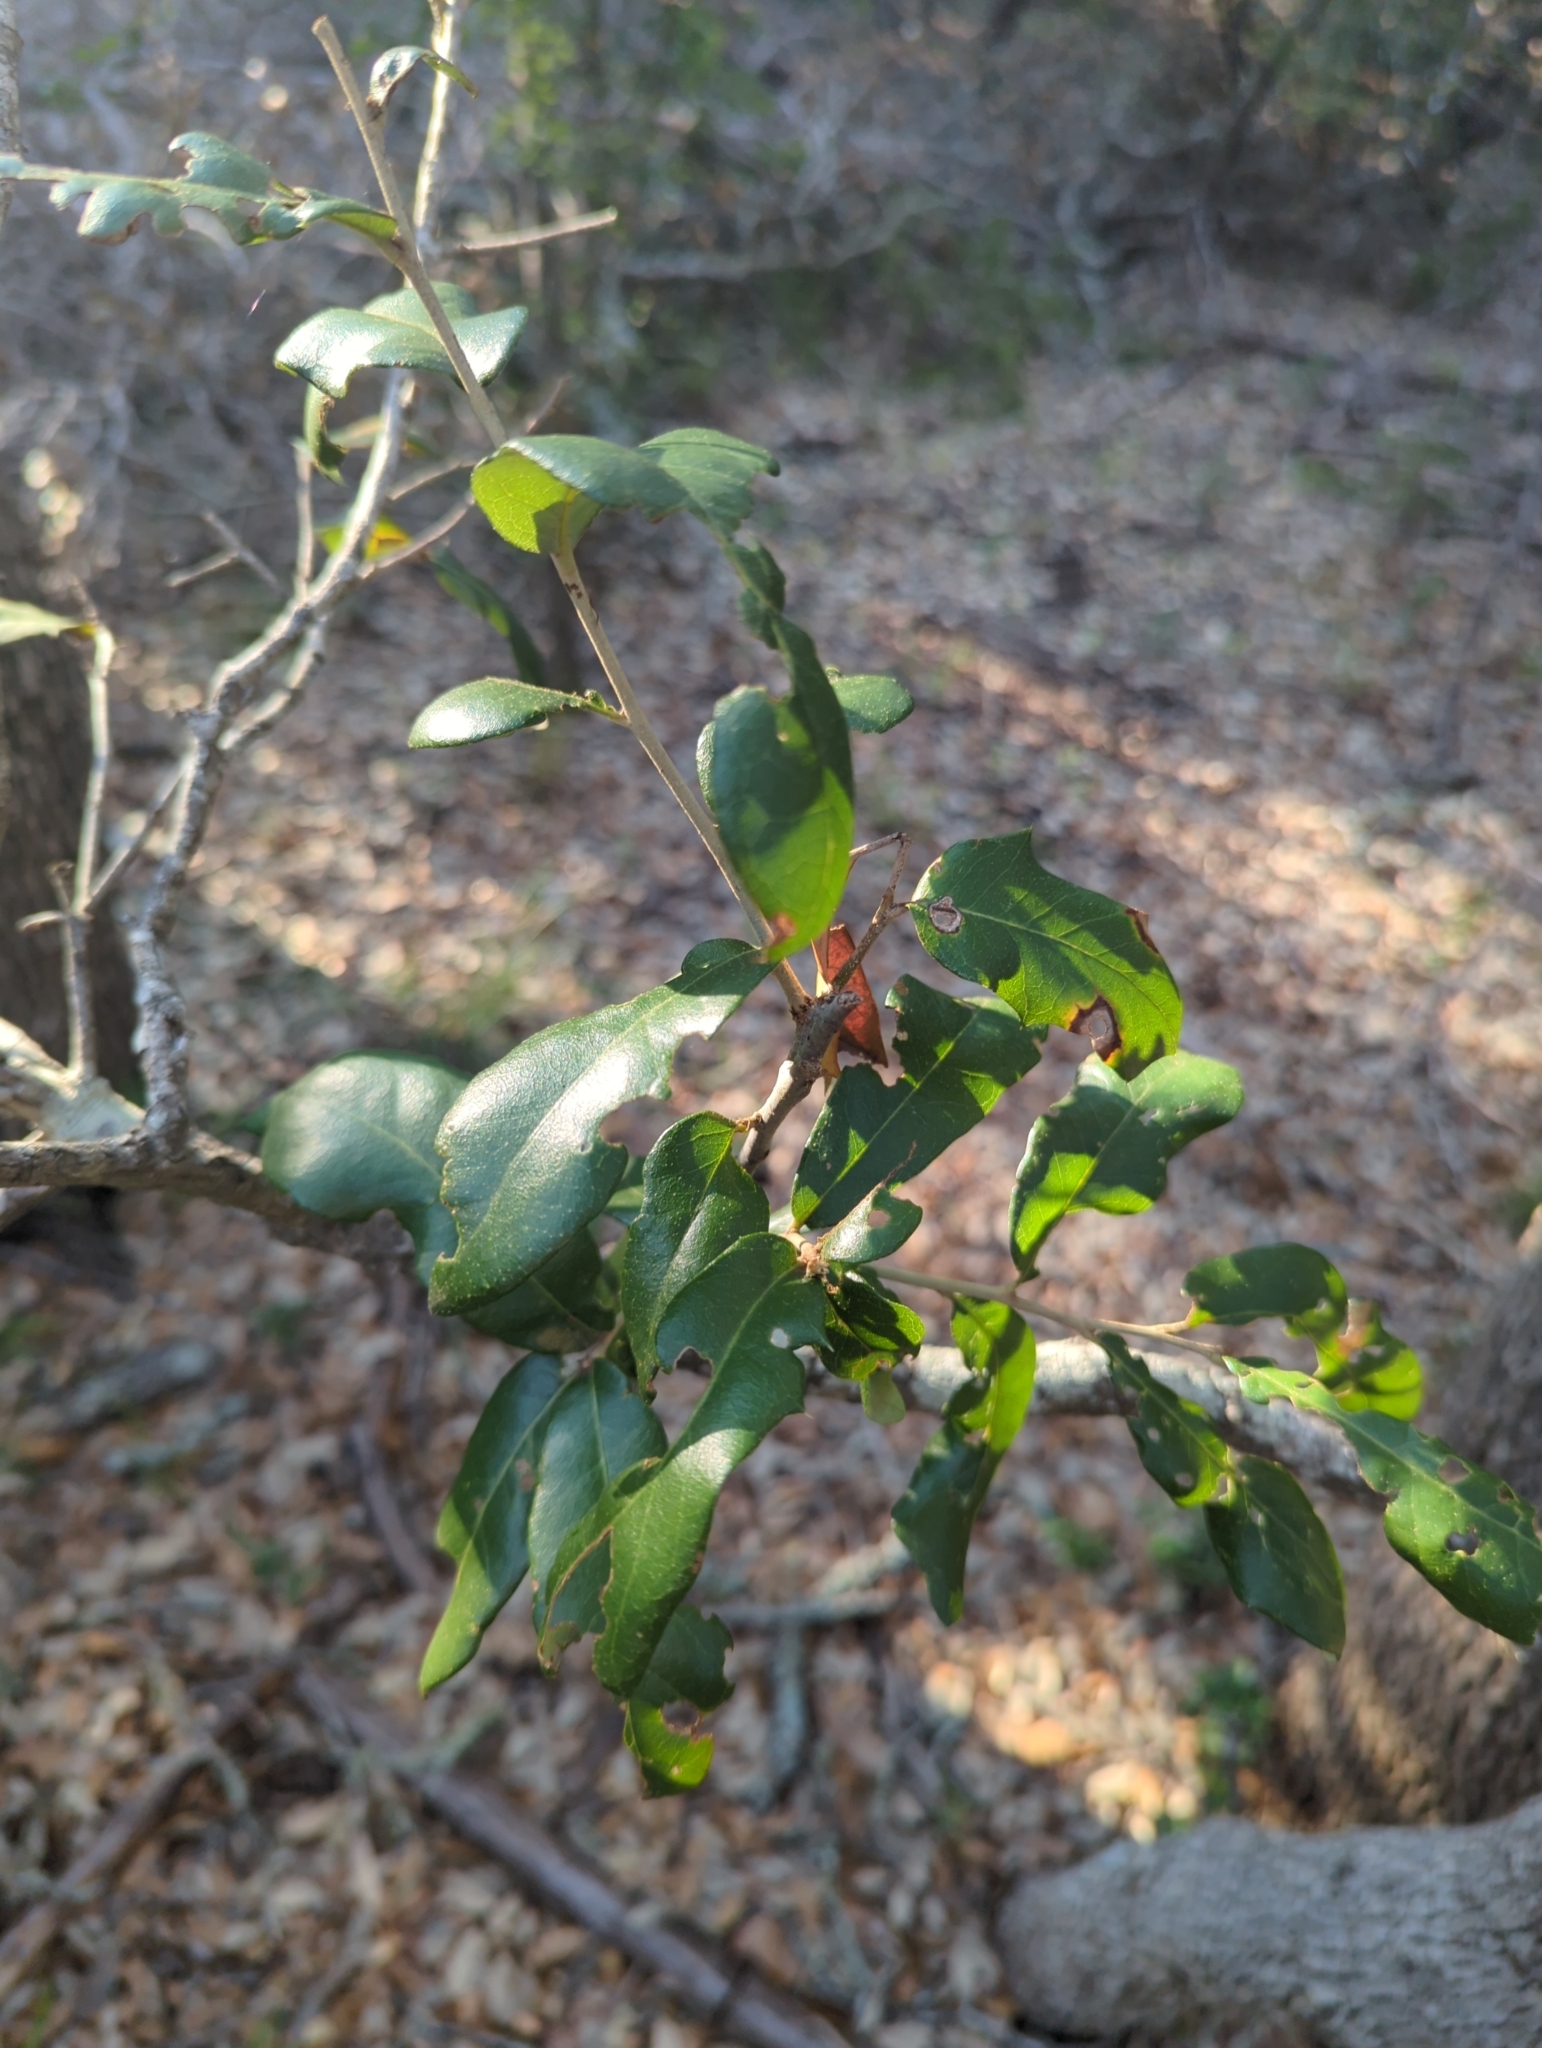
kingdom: Plantae
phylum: Tracheophyta
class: Magnoliopsida
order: Fagales
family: Fagaceae
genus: Quercus
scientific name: Quercus fusiformis
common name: Texas live oak
